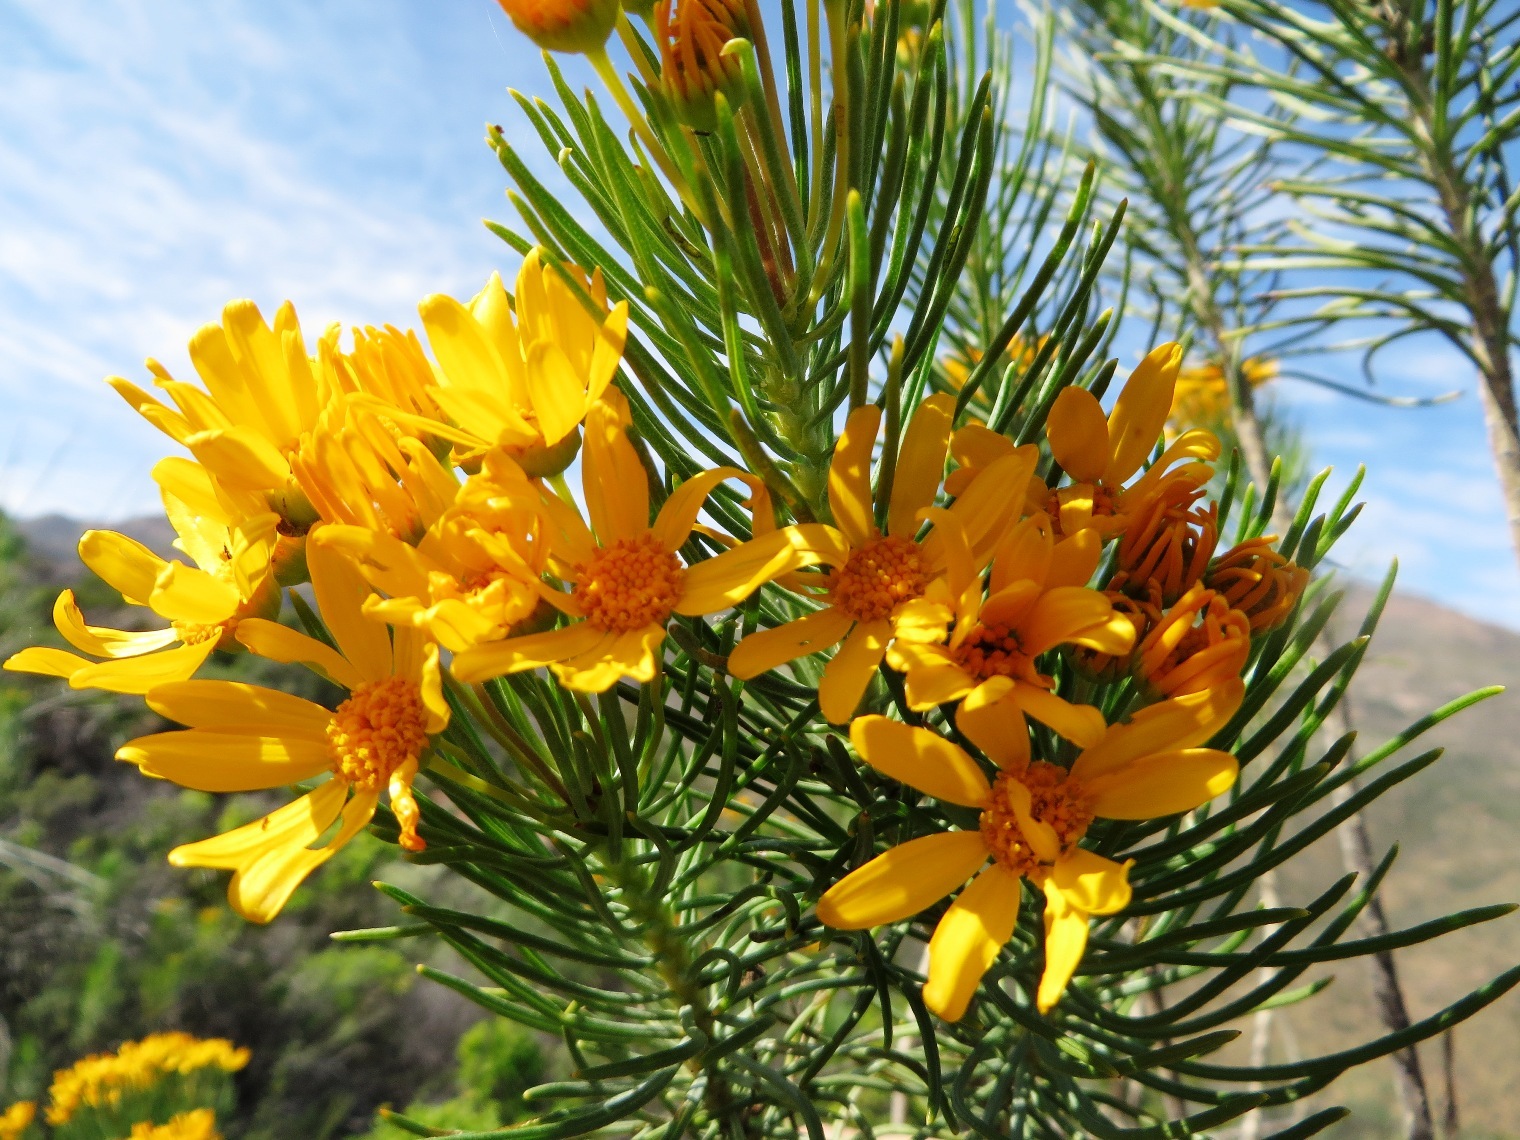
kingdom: Plantae
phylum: Tracheophyta
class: Magnoliopsida
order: Asterales
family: Asteraceae
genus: Euryops
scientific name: Euryops tenuissimus
